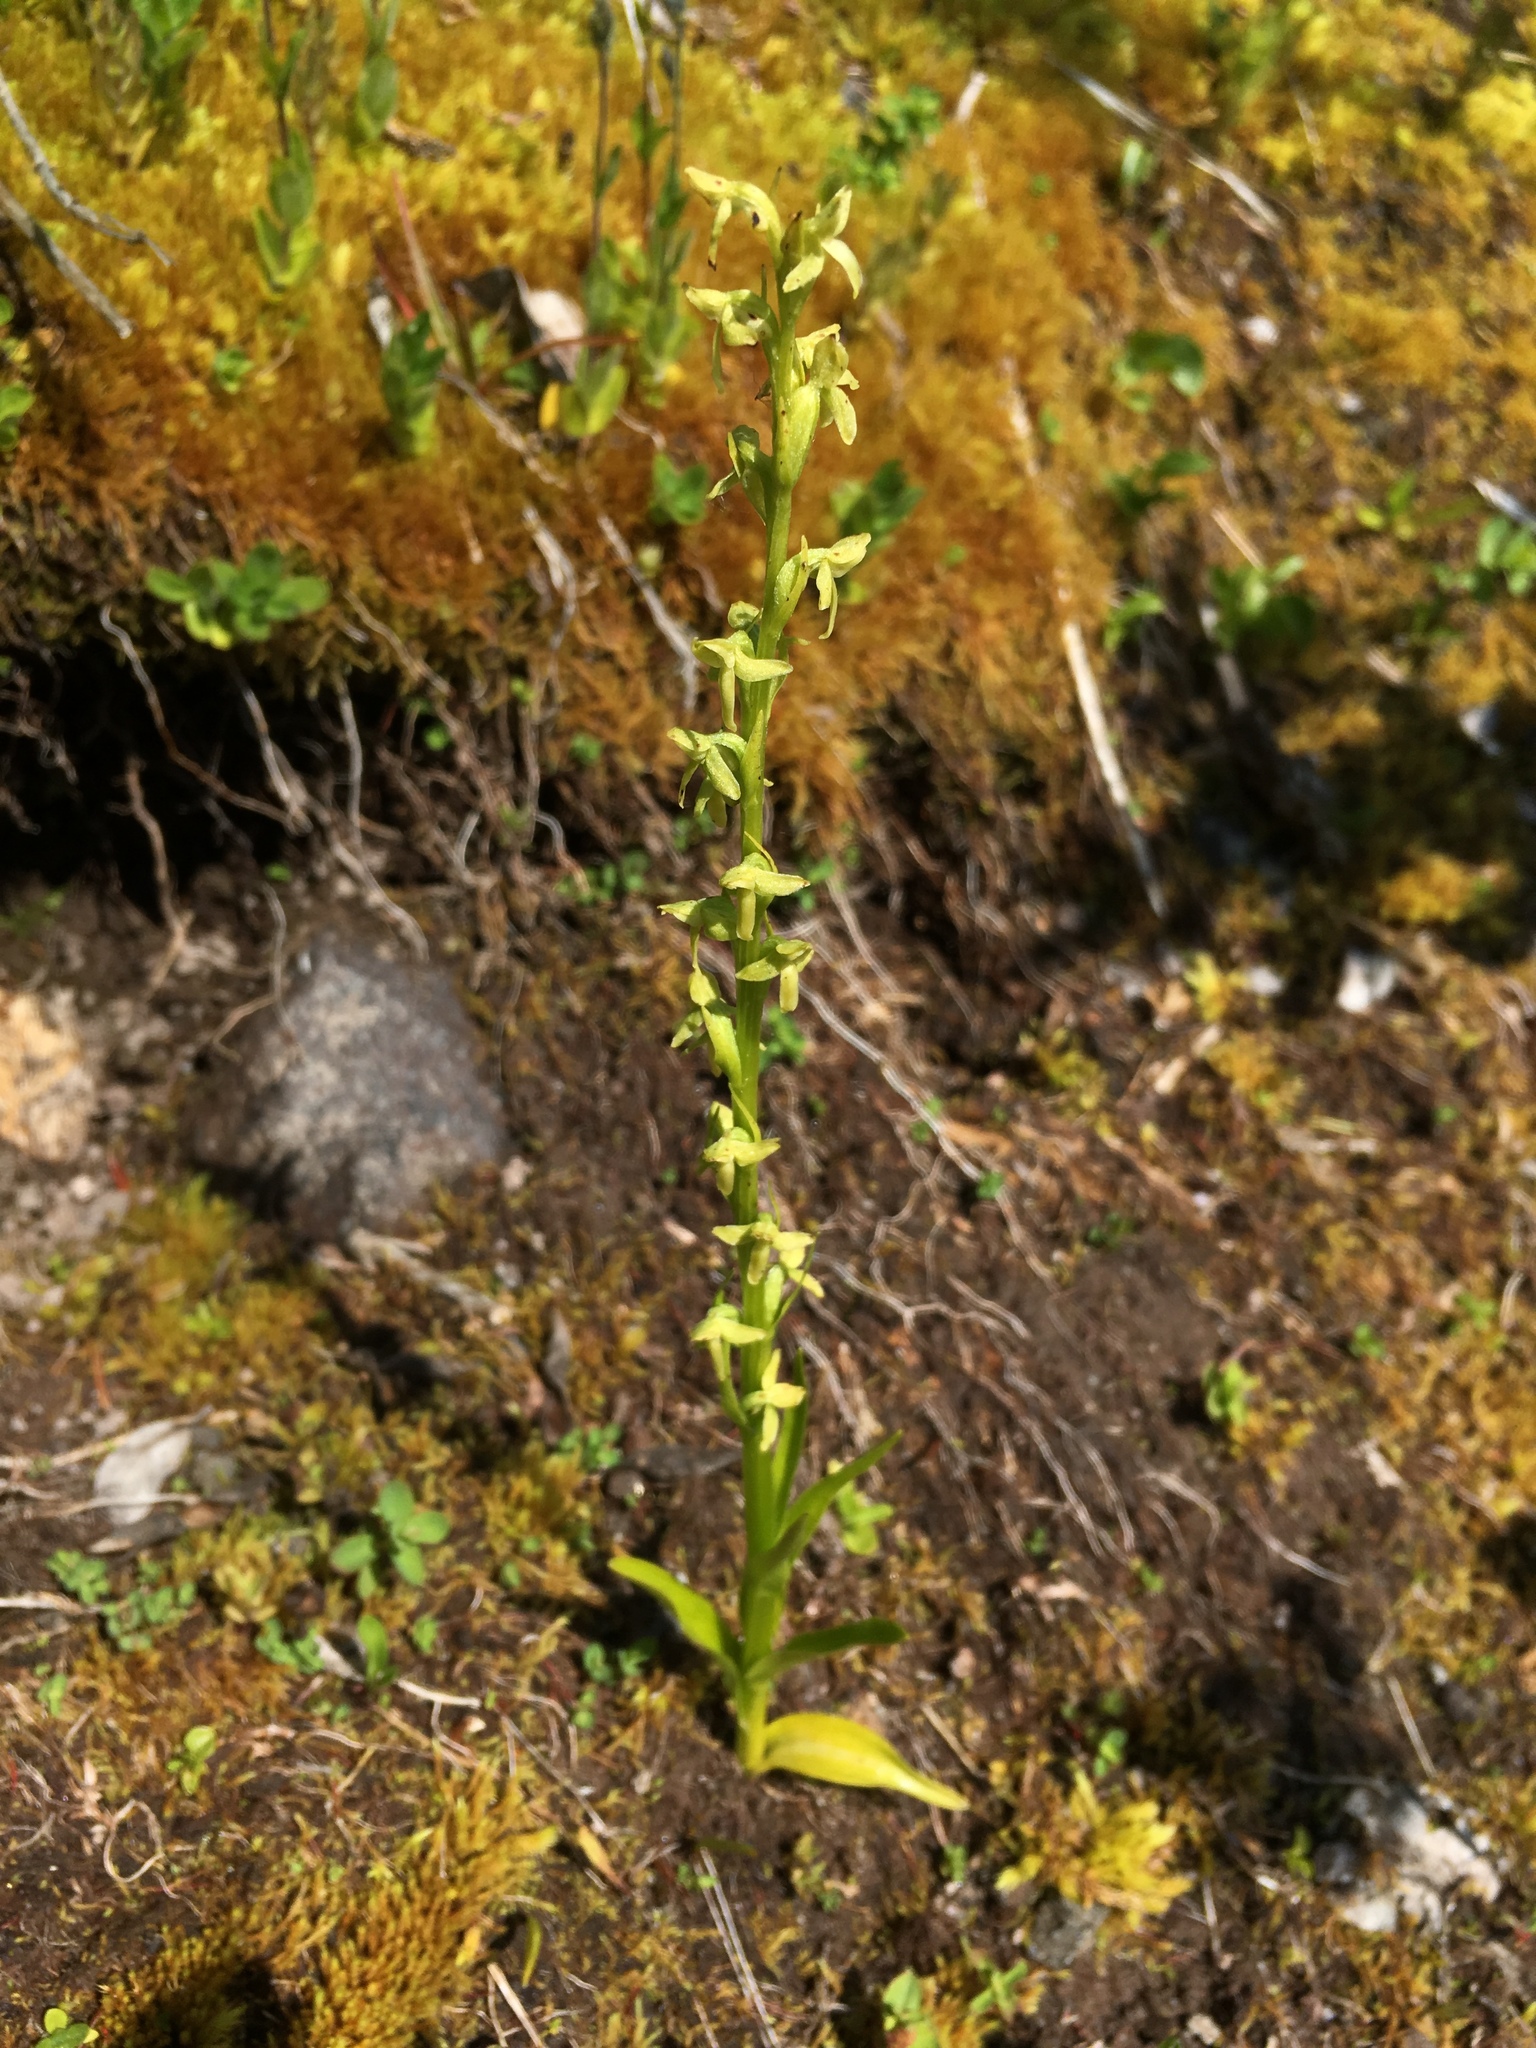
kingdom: Plantae
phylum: Tracheophyta
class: Liliopsida
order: Asparagales
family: Orchidaceae
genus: Platanthera
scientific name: Platanthera stricta
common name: Slender bog orchid
